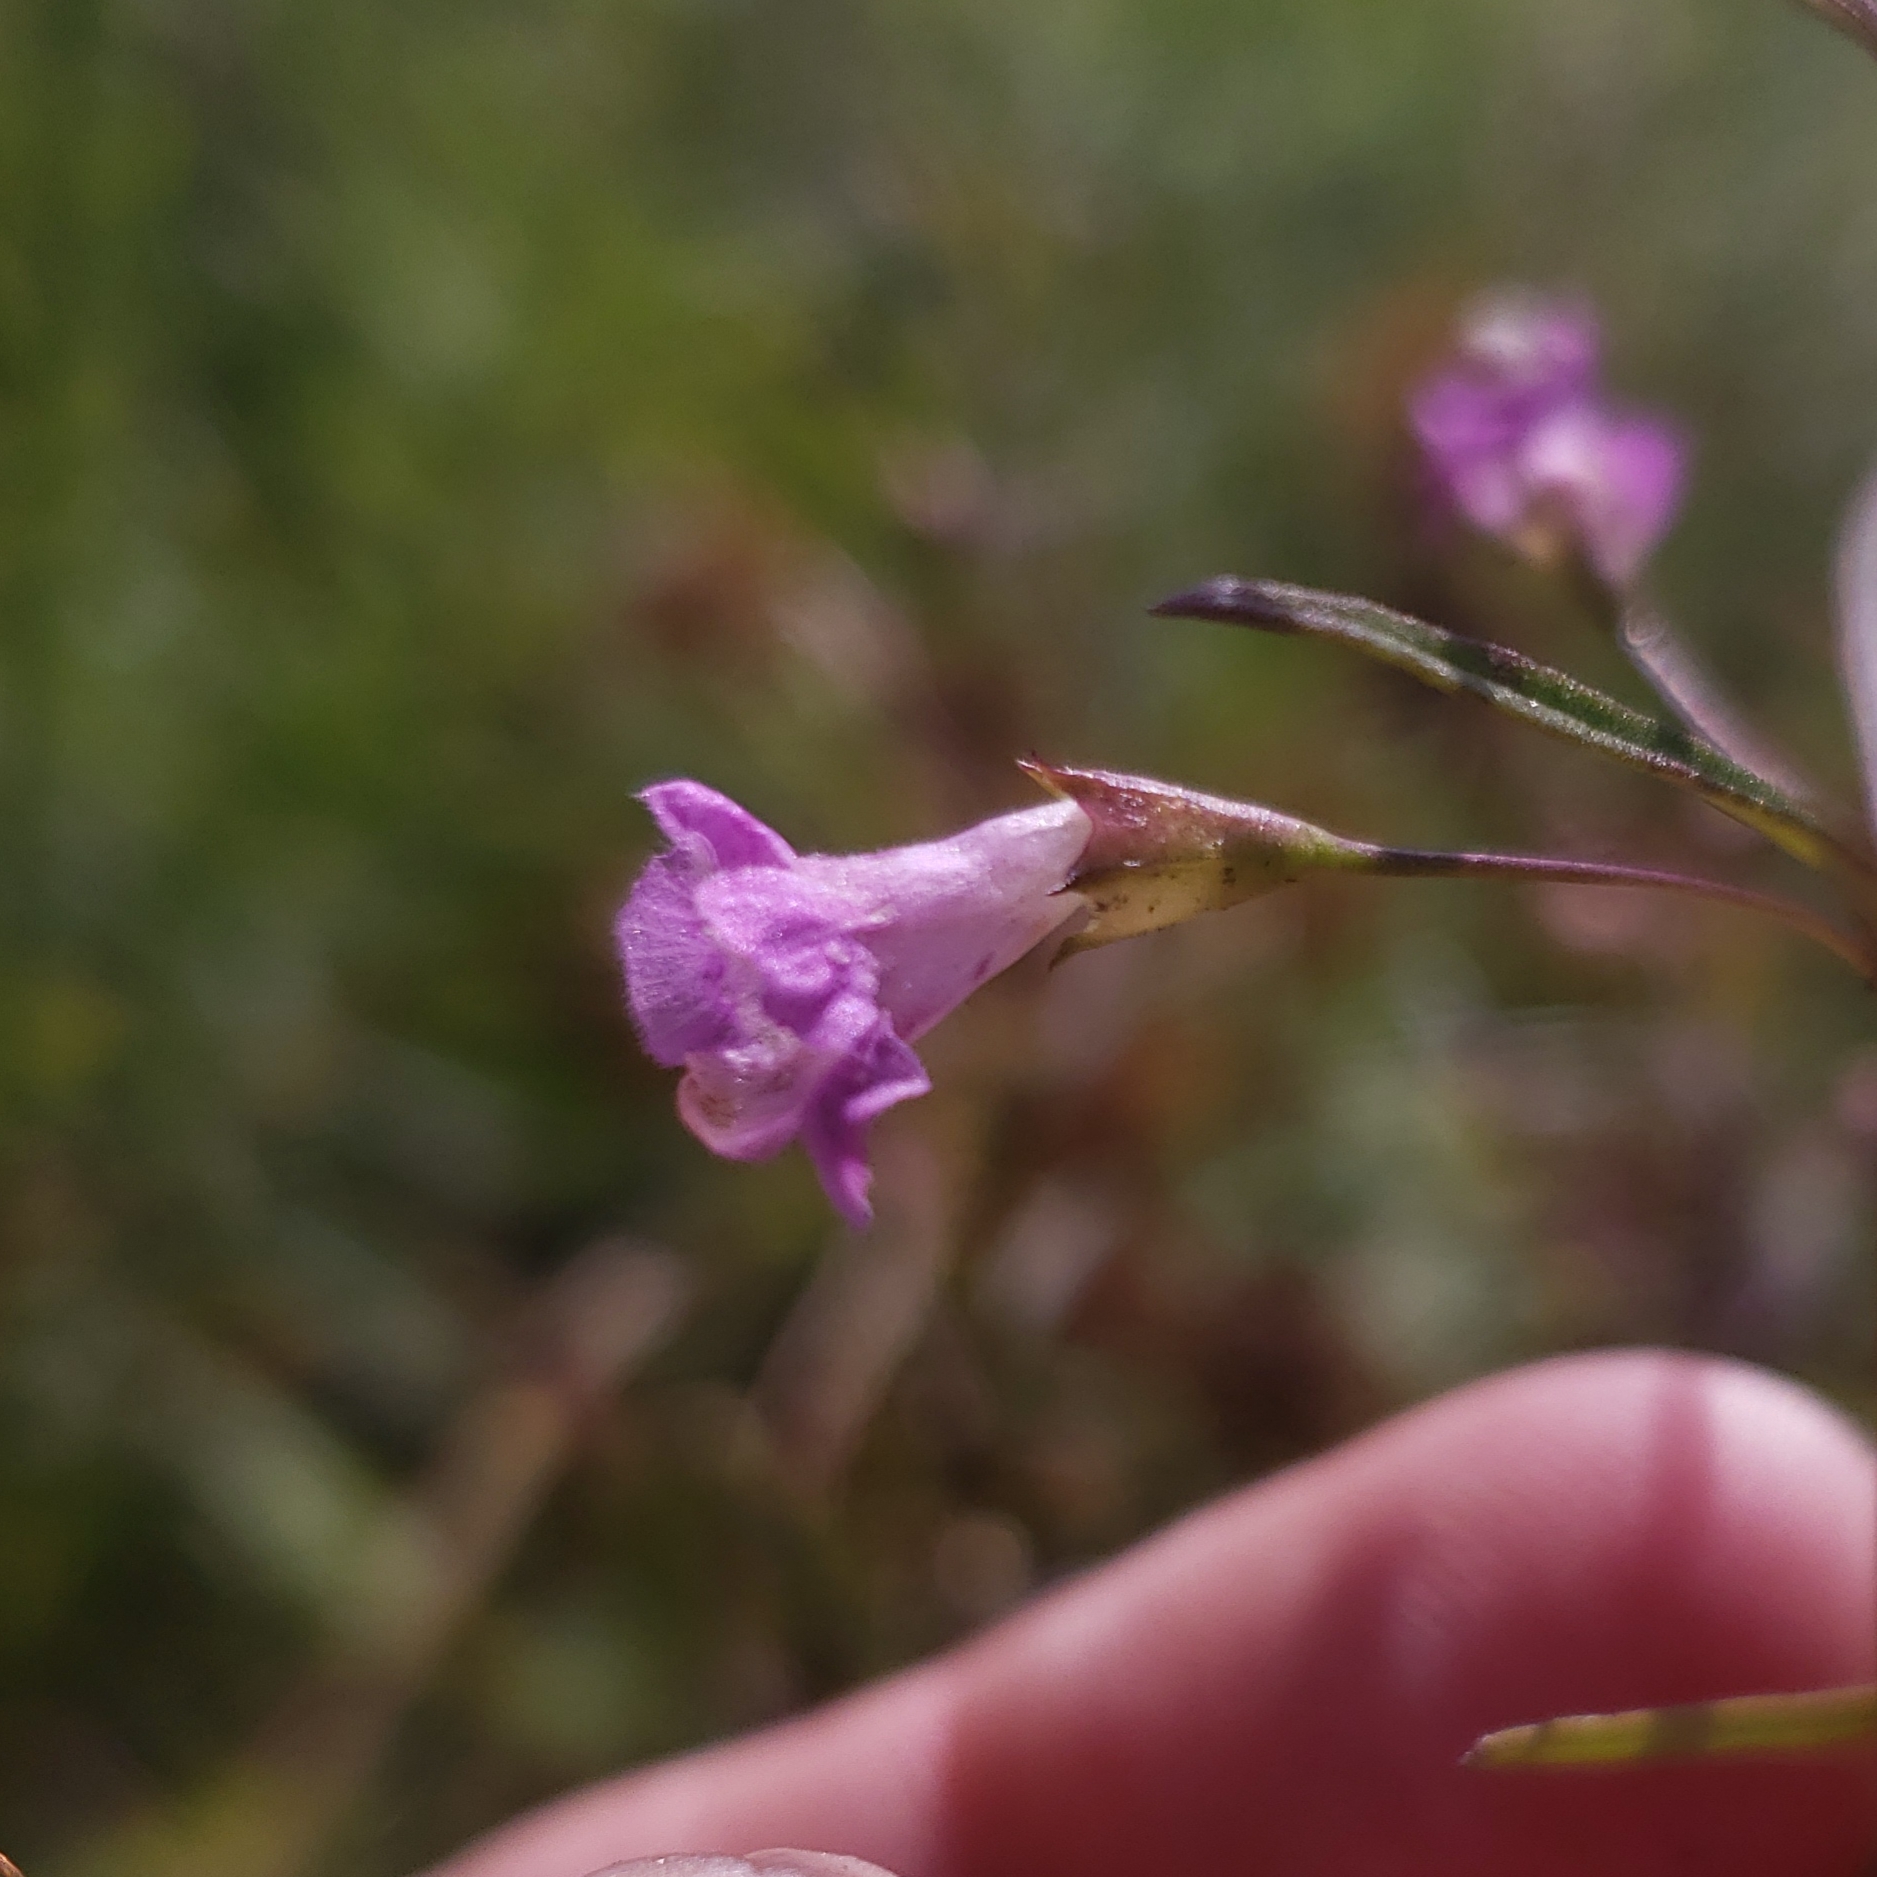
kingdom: Plantae
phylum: Tracheophyta
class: Magnoliopsida
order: Lamiales
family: Orobanchaceae
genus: Agalinis
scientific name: Agalinis tenuifolia
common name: Slender agalinis
